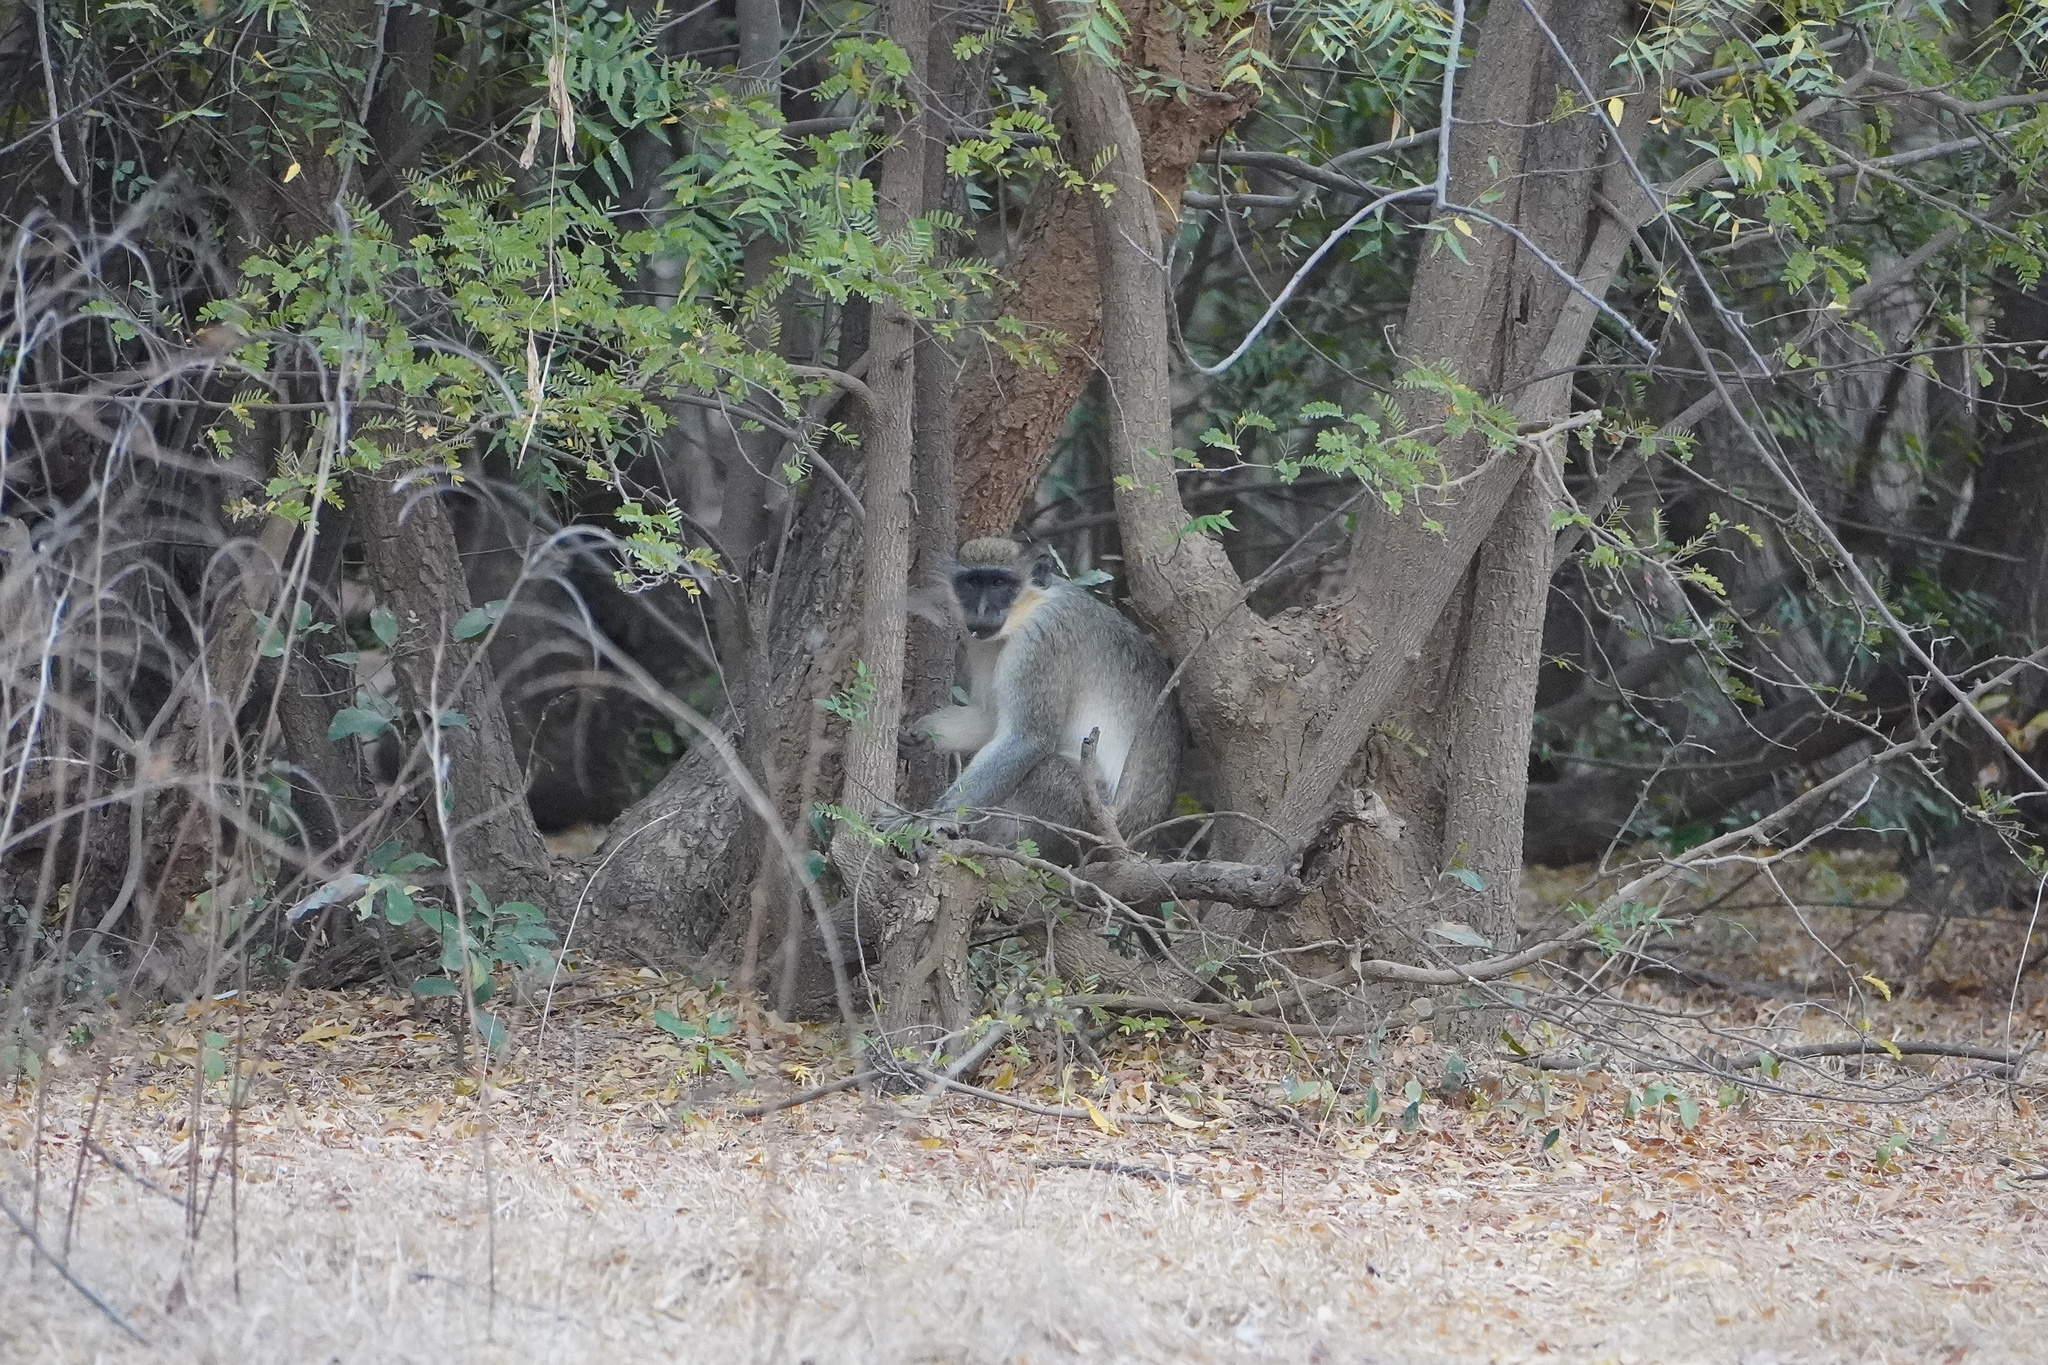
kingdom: Animalia
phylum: Chordata
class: Mammalia
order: Primates
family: Cercopithecidae
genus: Chlorocebus
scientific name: Chlorocebus sabaeus
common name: Green monkey
